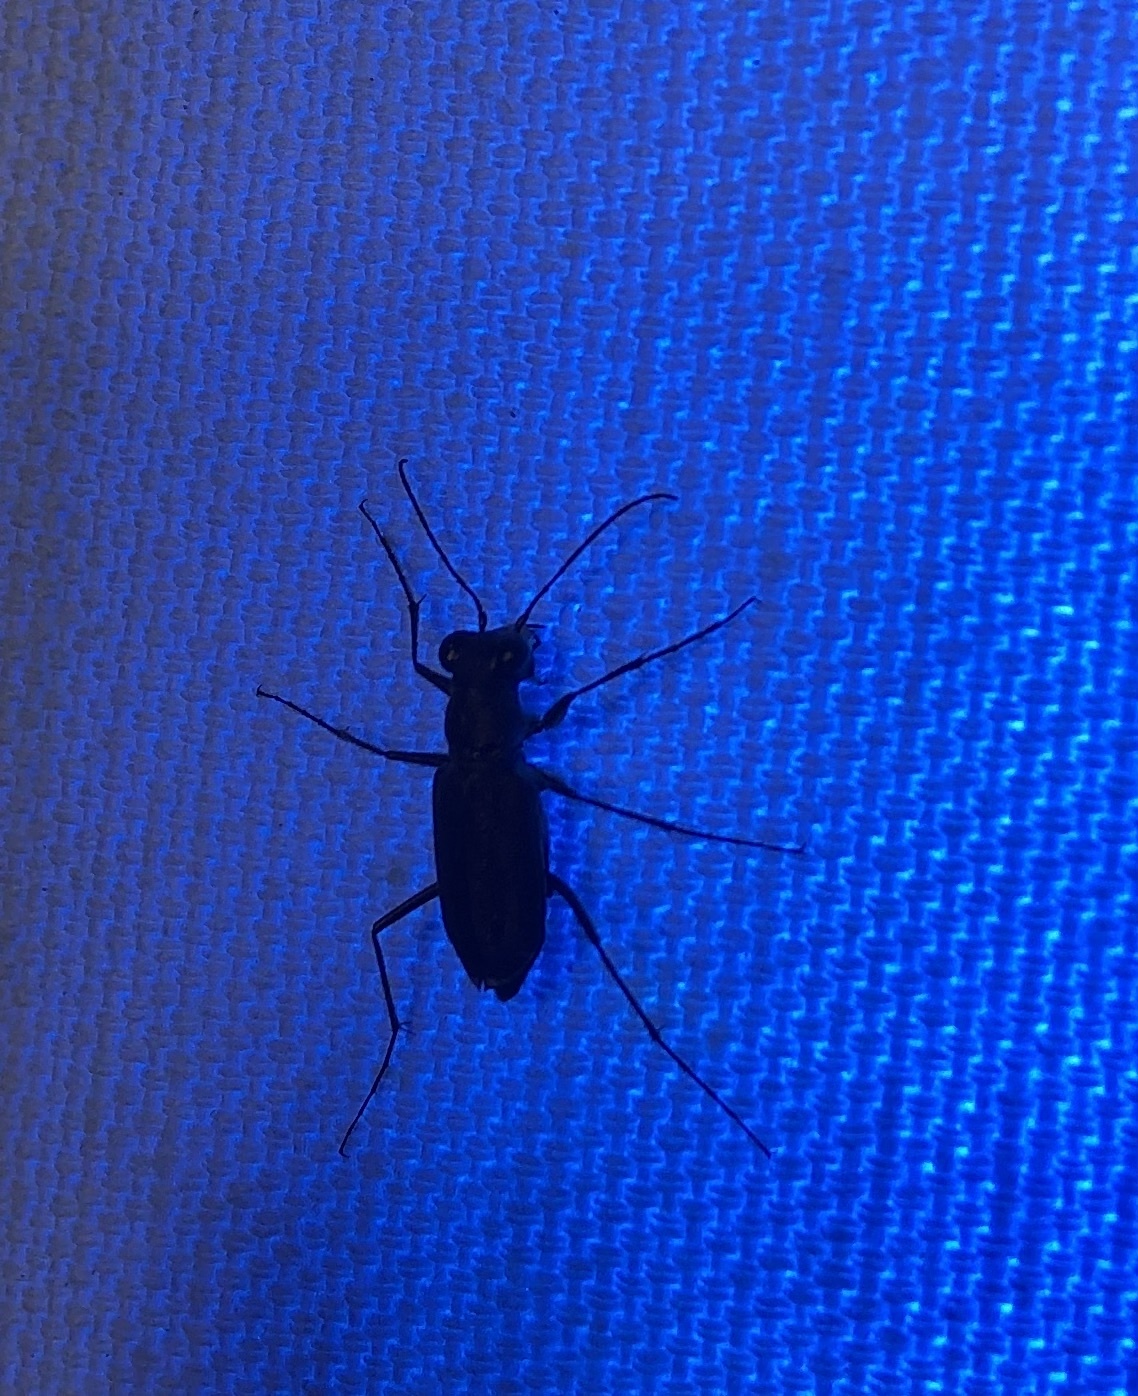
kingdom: Animalia
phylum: Arthropoda
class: Insecta
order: Coleoptera
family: Carabidae
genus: Cicindela
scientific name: Cicindela punctulata
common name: Punctured tiger beetle
